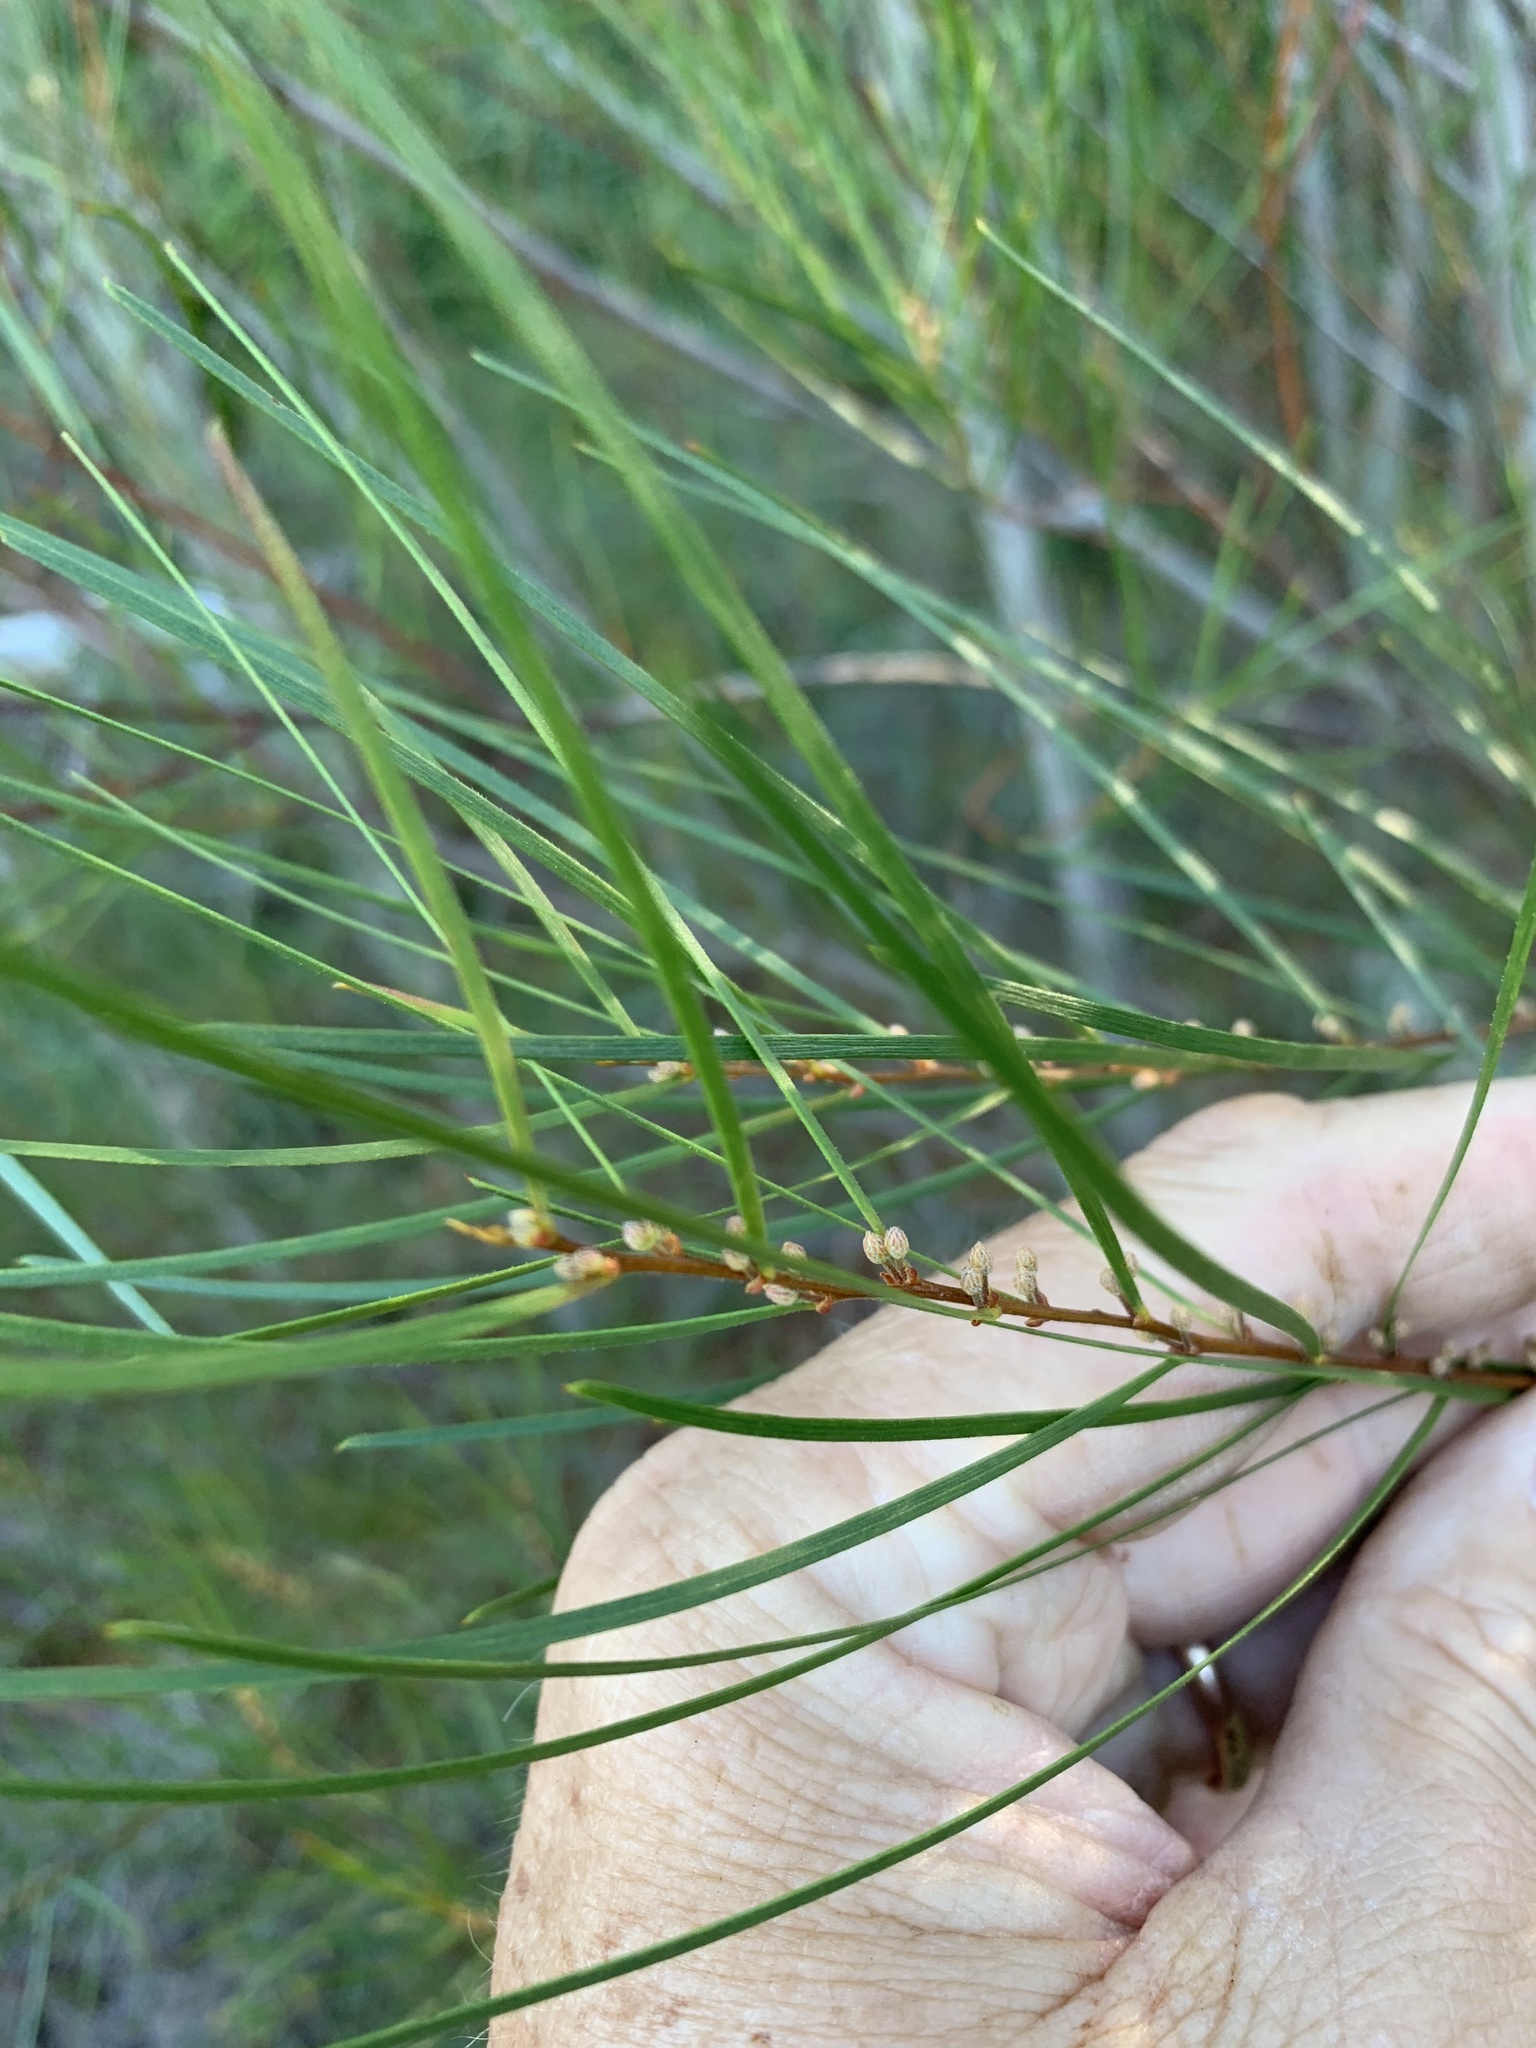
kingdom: Plantae
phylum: Tracheophyta
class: Magnoliopsida
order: Fabales
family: Fabaceae
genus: Acacia
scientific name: Acacia viscidula
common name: Sticky wattle
